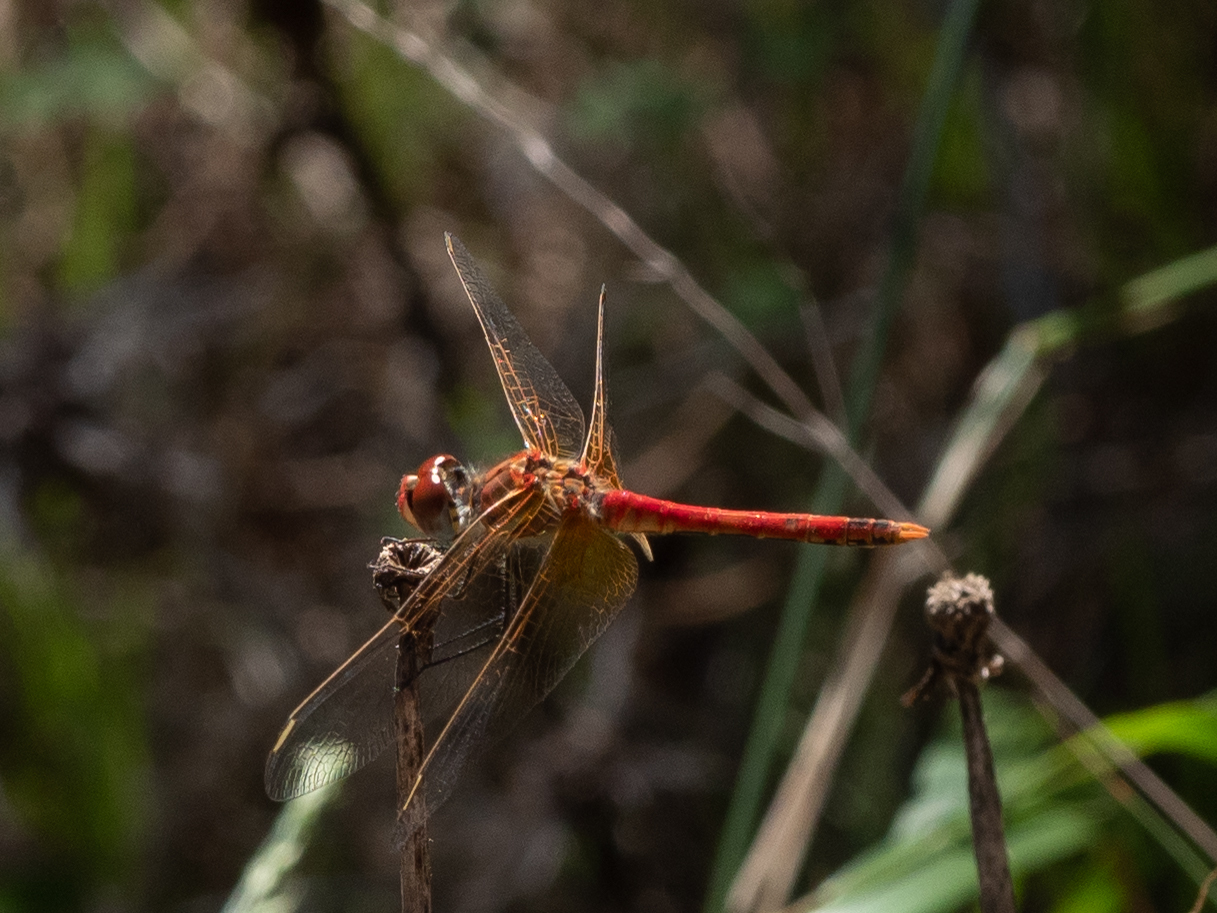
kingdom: Animalia
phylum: Arthropoda
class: Insecta
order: Odonata
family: Libellulidae
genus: Sympetrum
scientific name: Sympetrum fonscolombii
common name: Red-veined darter
